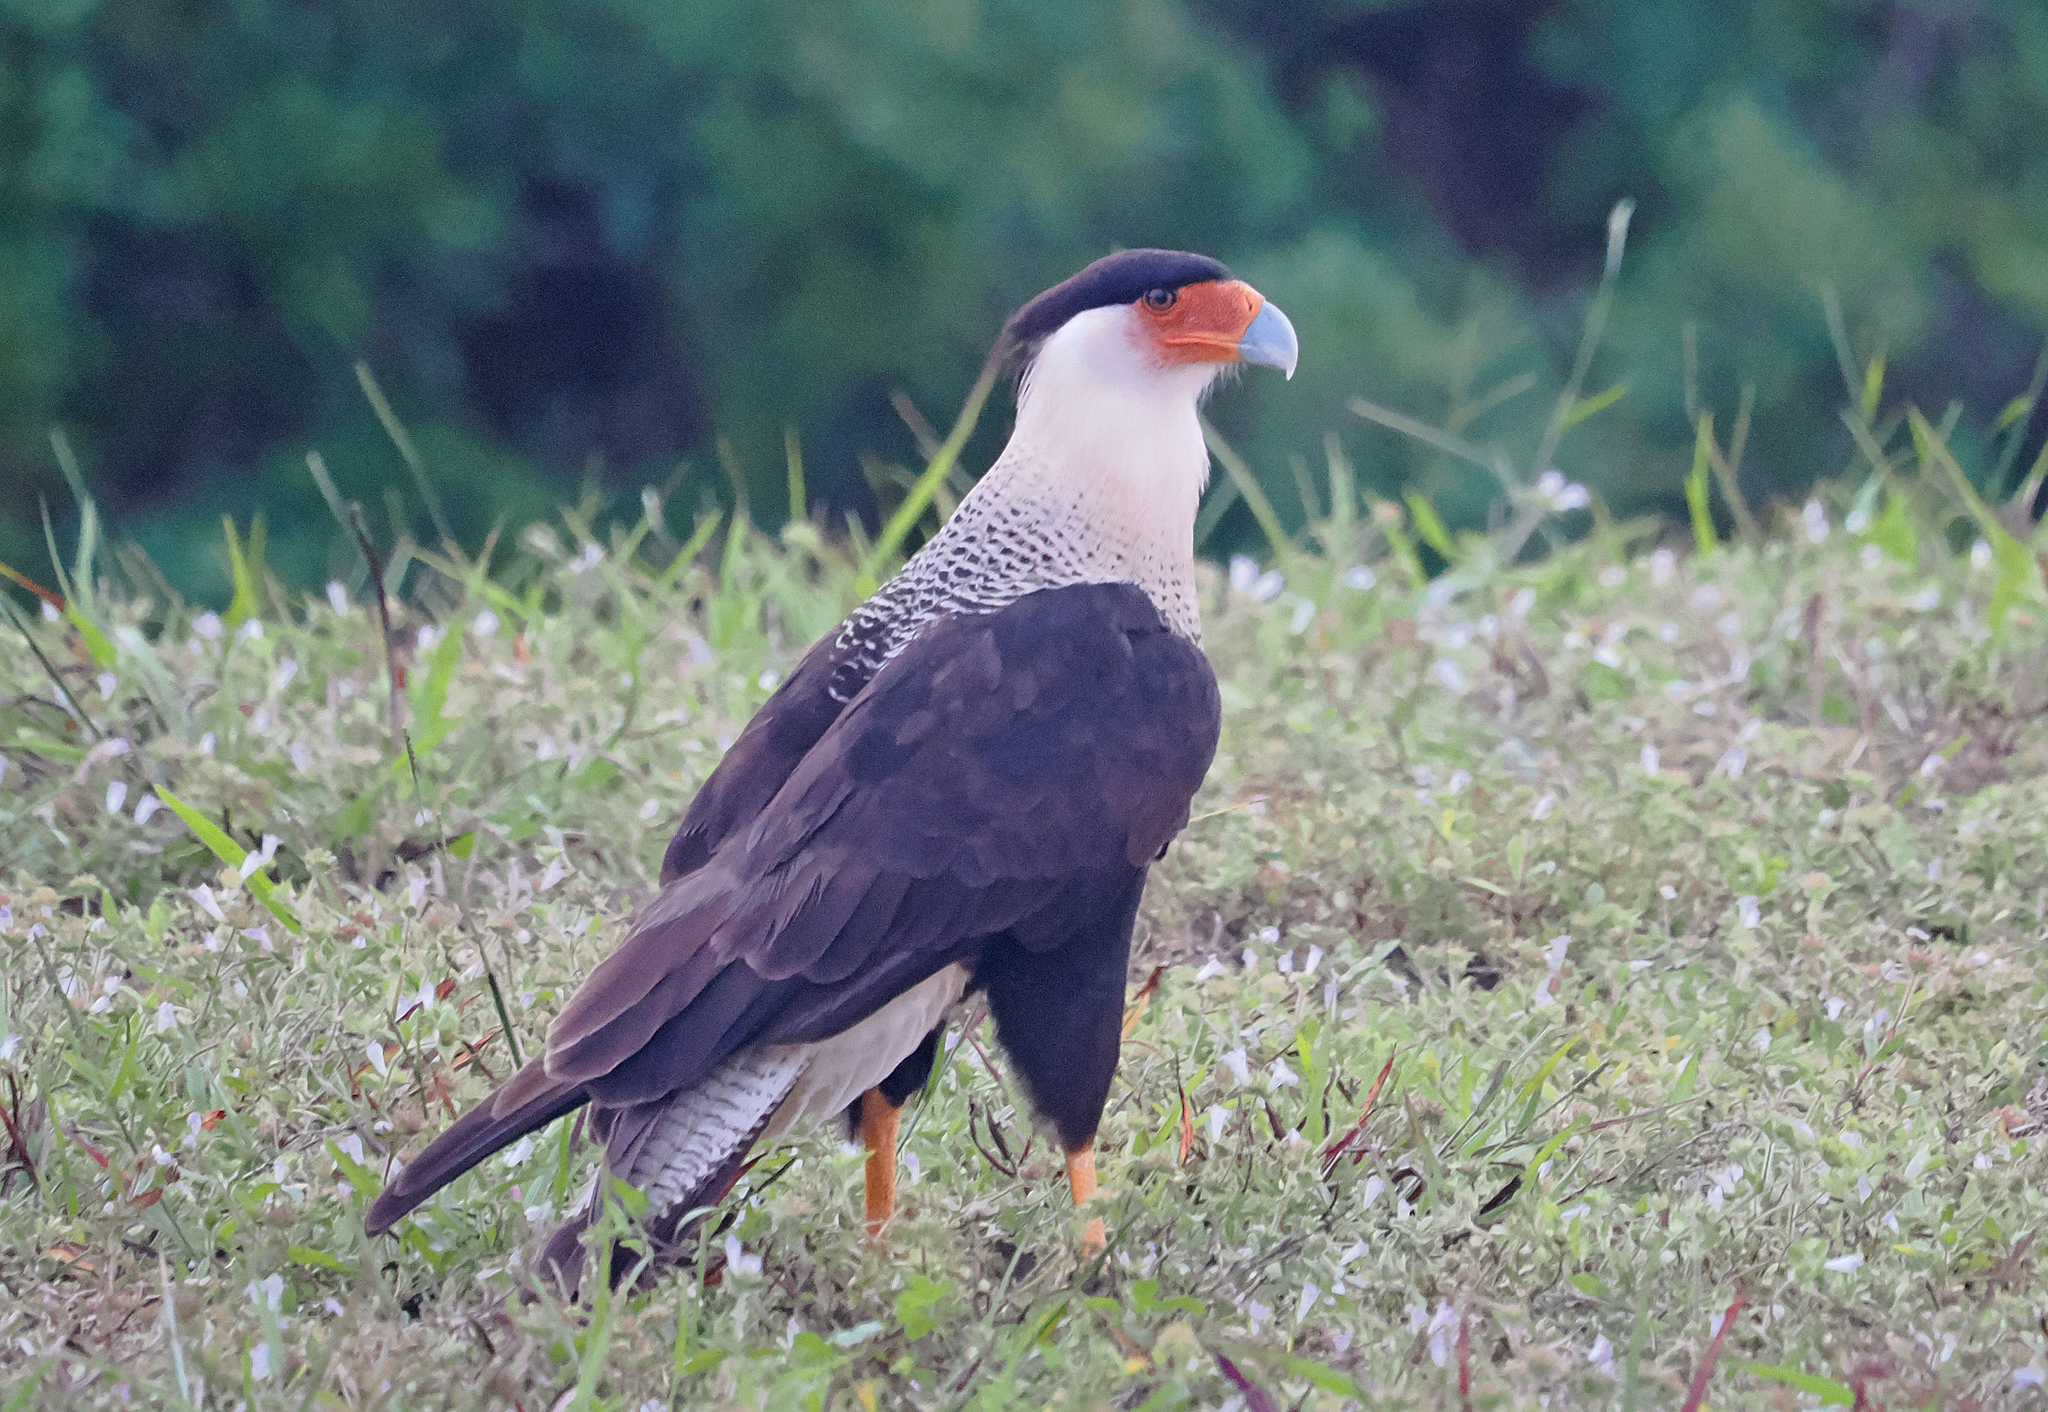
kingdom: Animalia
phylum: Chordata
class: Aves
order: Falconiformes
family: Falconidae
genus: Caracara
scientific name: Caracara plancus
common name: Southern caracara
